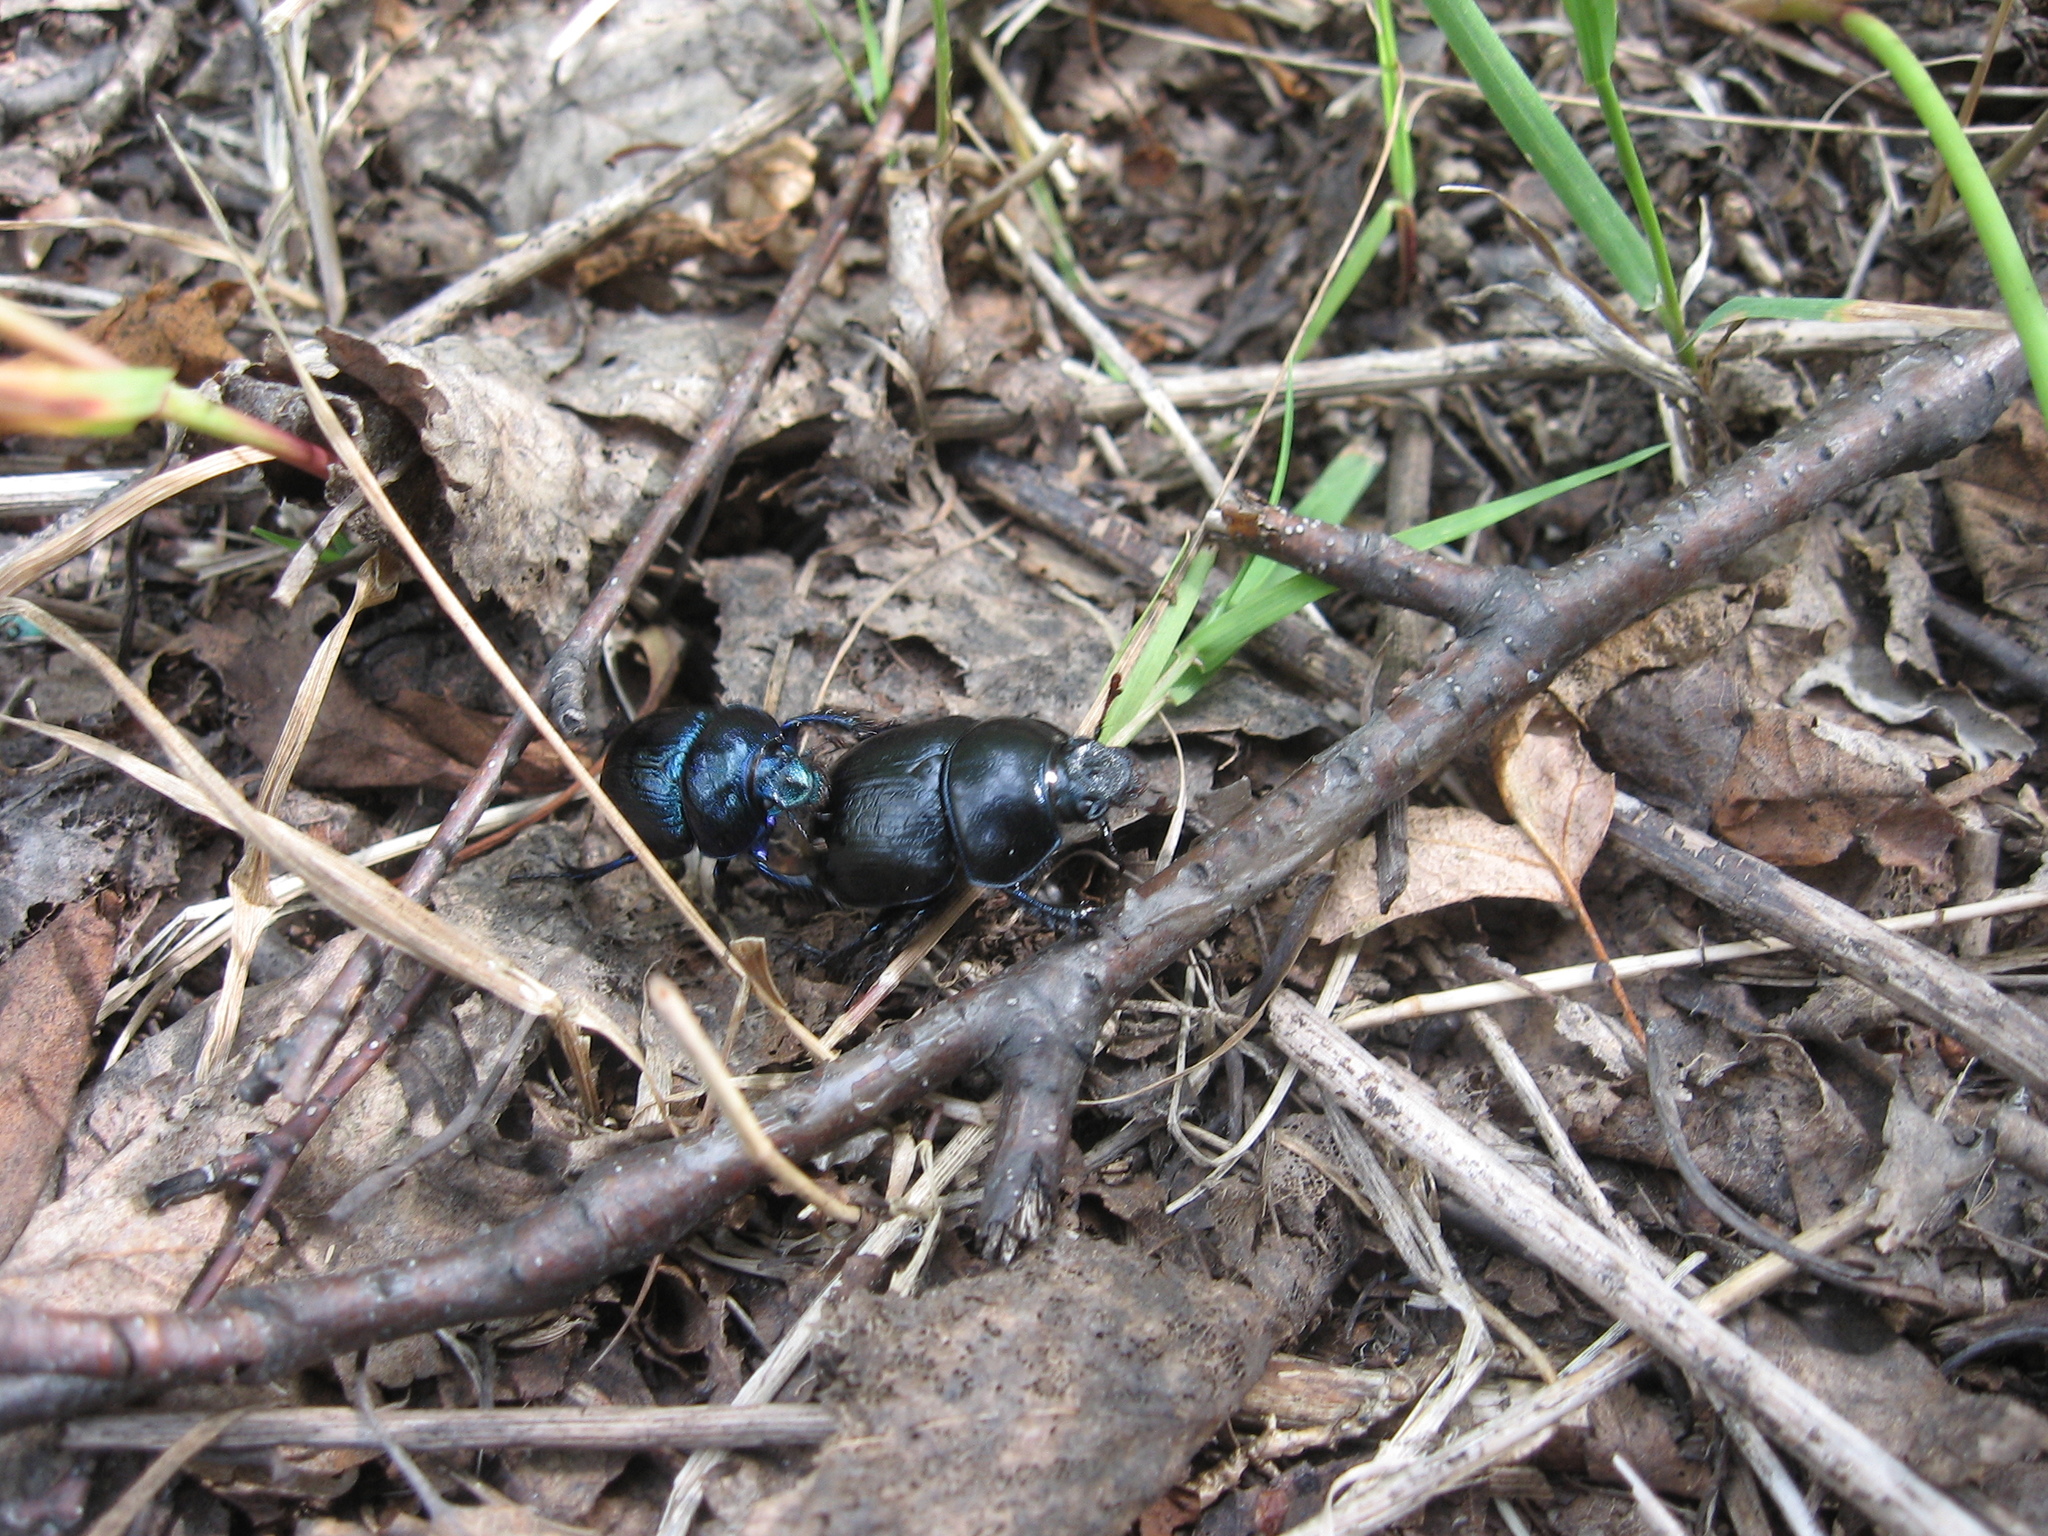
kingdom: Animalia
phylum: Arthropoda
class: Insecta
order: Coleoptera
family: Geotrupidae
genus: Anoplotrupes
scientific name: Anoplotrupes stercorosus
